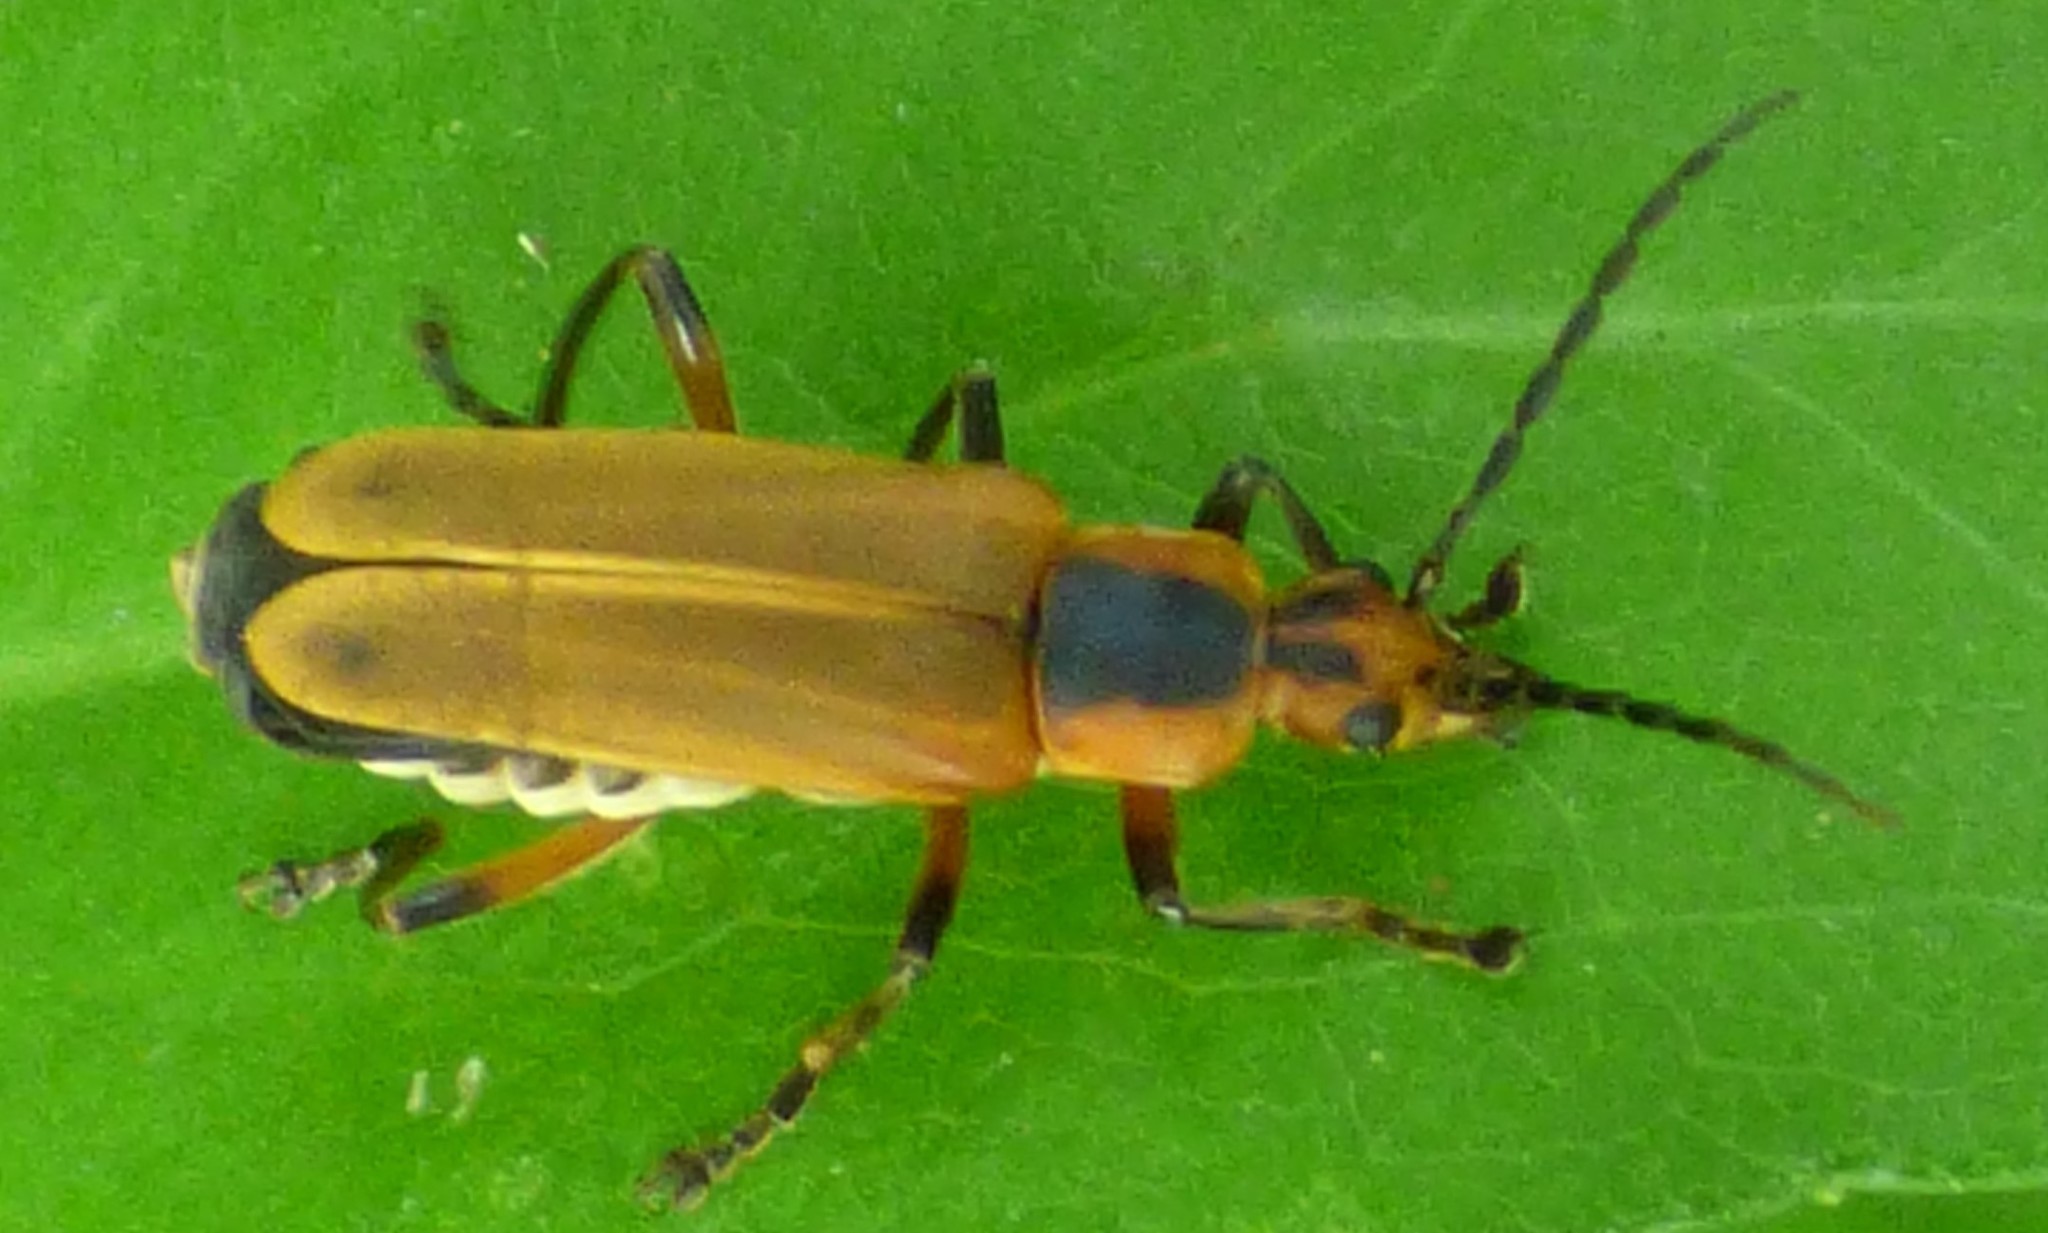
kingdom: Animalia
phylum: Arthropoda
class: Insecta
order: Coleoptera
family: Cantharidae
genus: Chauliognathus
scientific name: Chauliognathus marginatus
